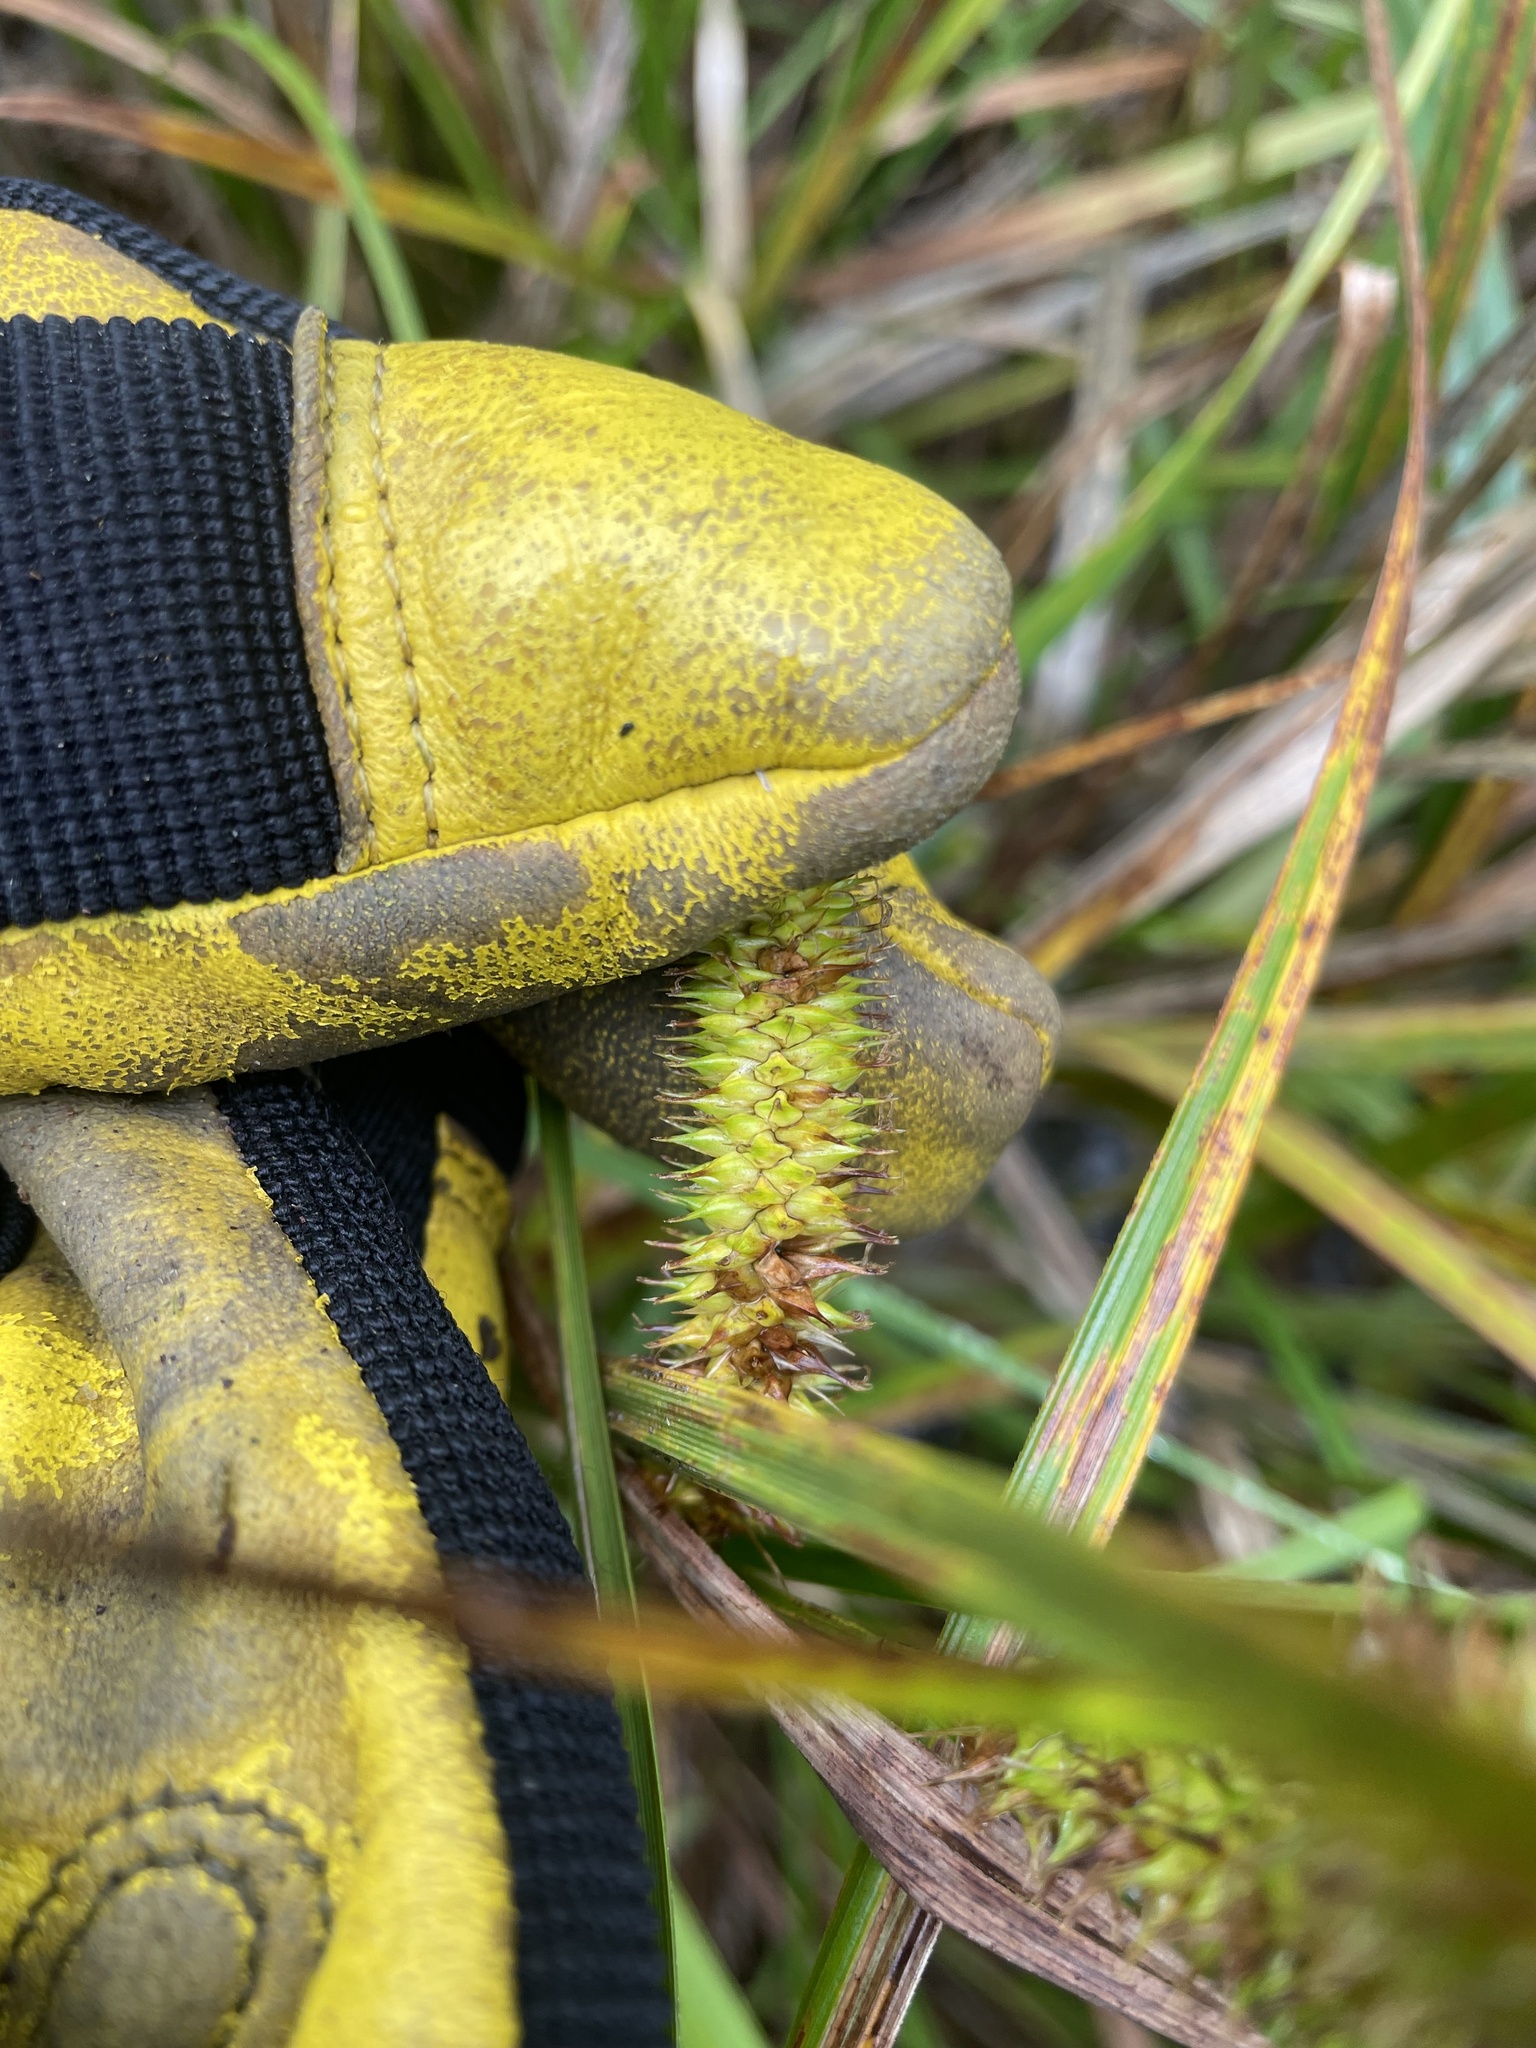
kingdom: Plantae
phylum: Tracheophyta
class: Liliopsida
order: Poales
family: Cyperaceae
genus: Carex
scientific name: Carex utriculata
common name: Beaked sedge
